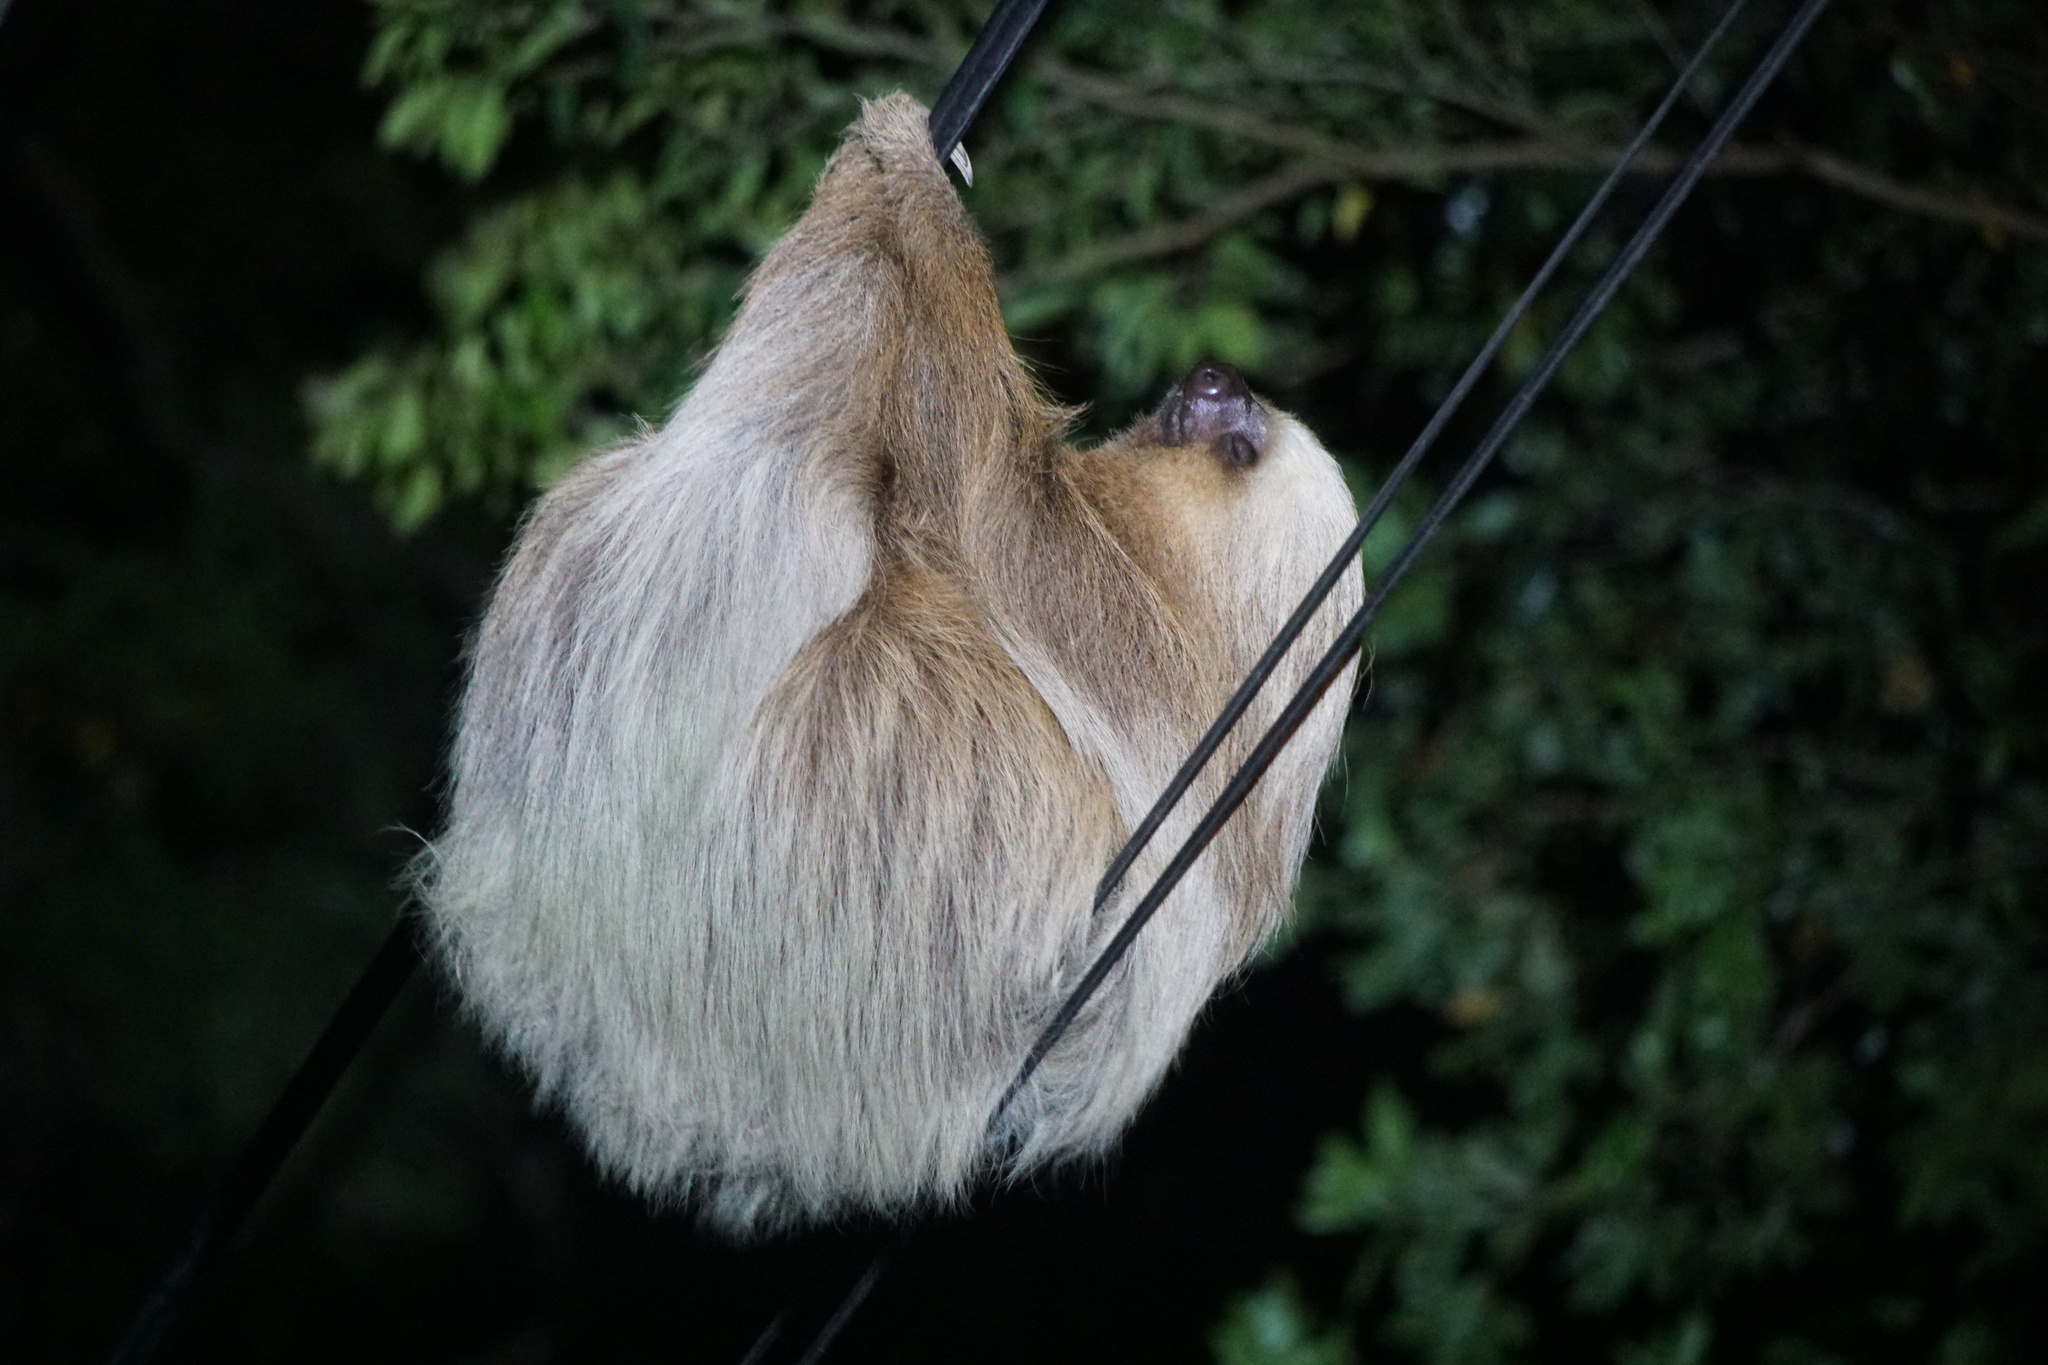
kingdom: Animalia
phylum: Chordata
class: Mammalia
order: Pilosa
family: Megalonychidae
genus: Choloepus
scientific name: Choloepus hoffmanni
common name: Hoffmann's two-toed sloth
